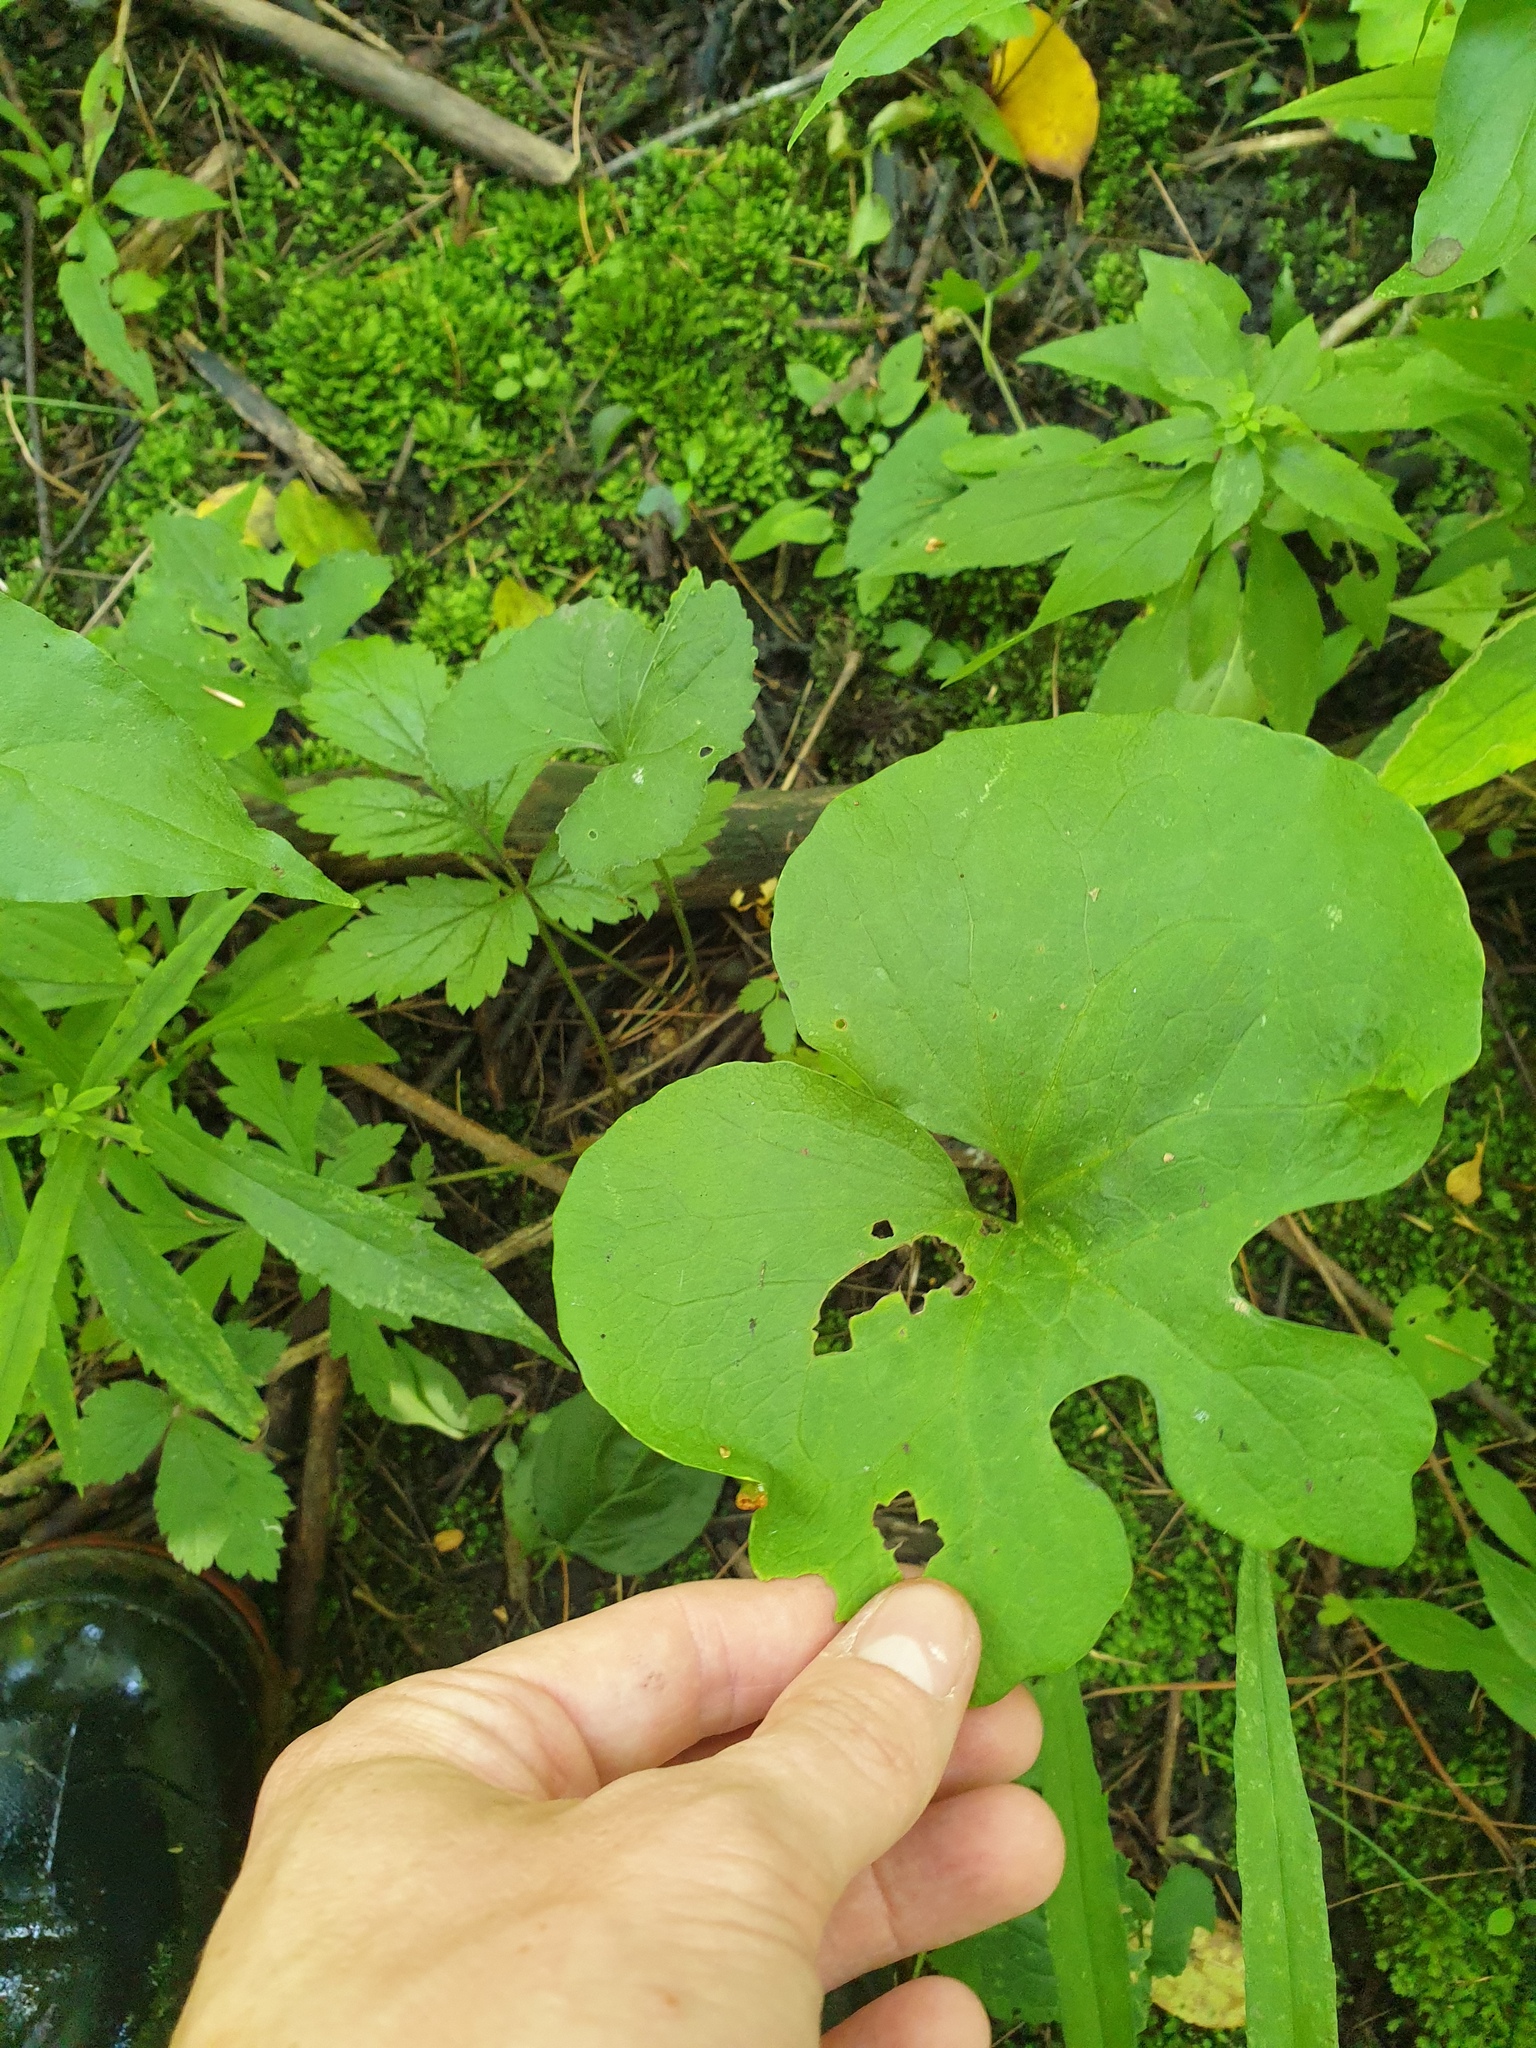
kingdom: Plantae
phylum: Tracheophyta
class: Magnoliopsida
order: Ranunculales
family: Papaveraceae
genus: Sanguinaria
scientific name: Sanguinaria canadensis
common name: Bloodroot
